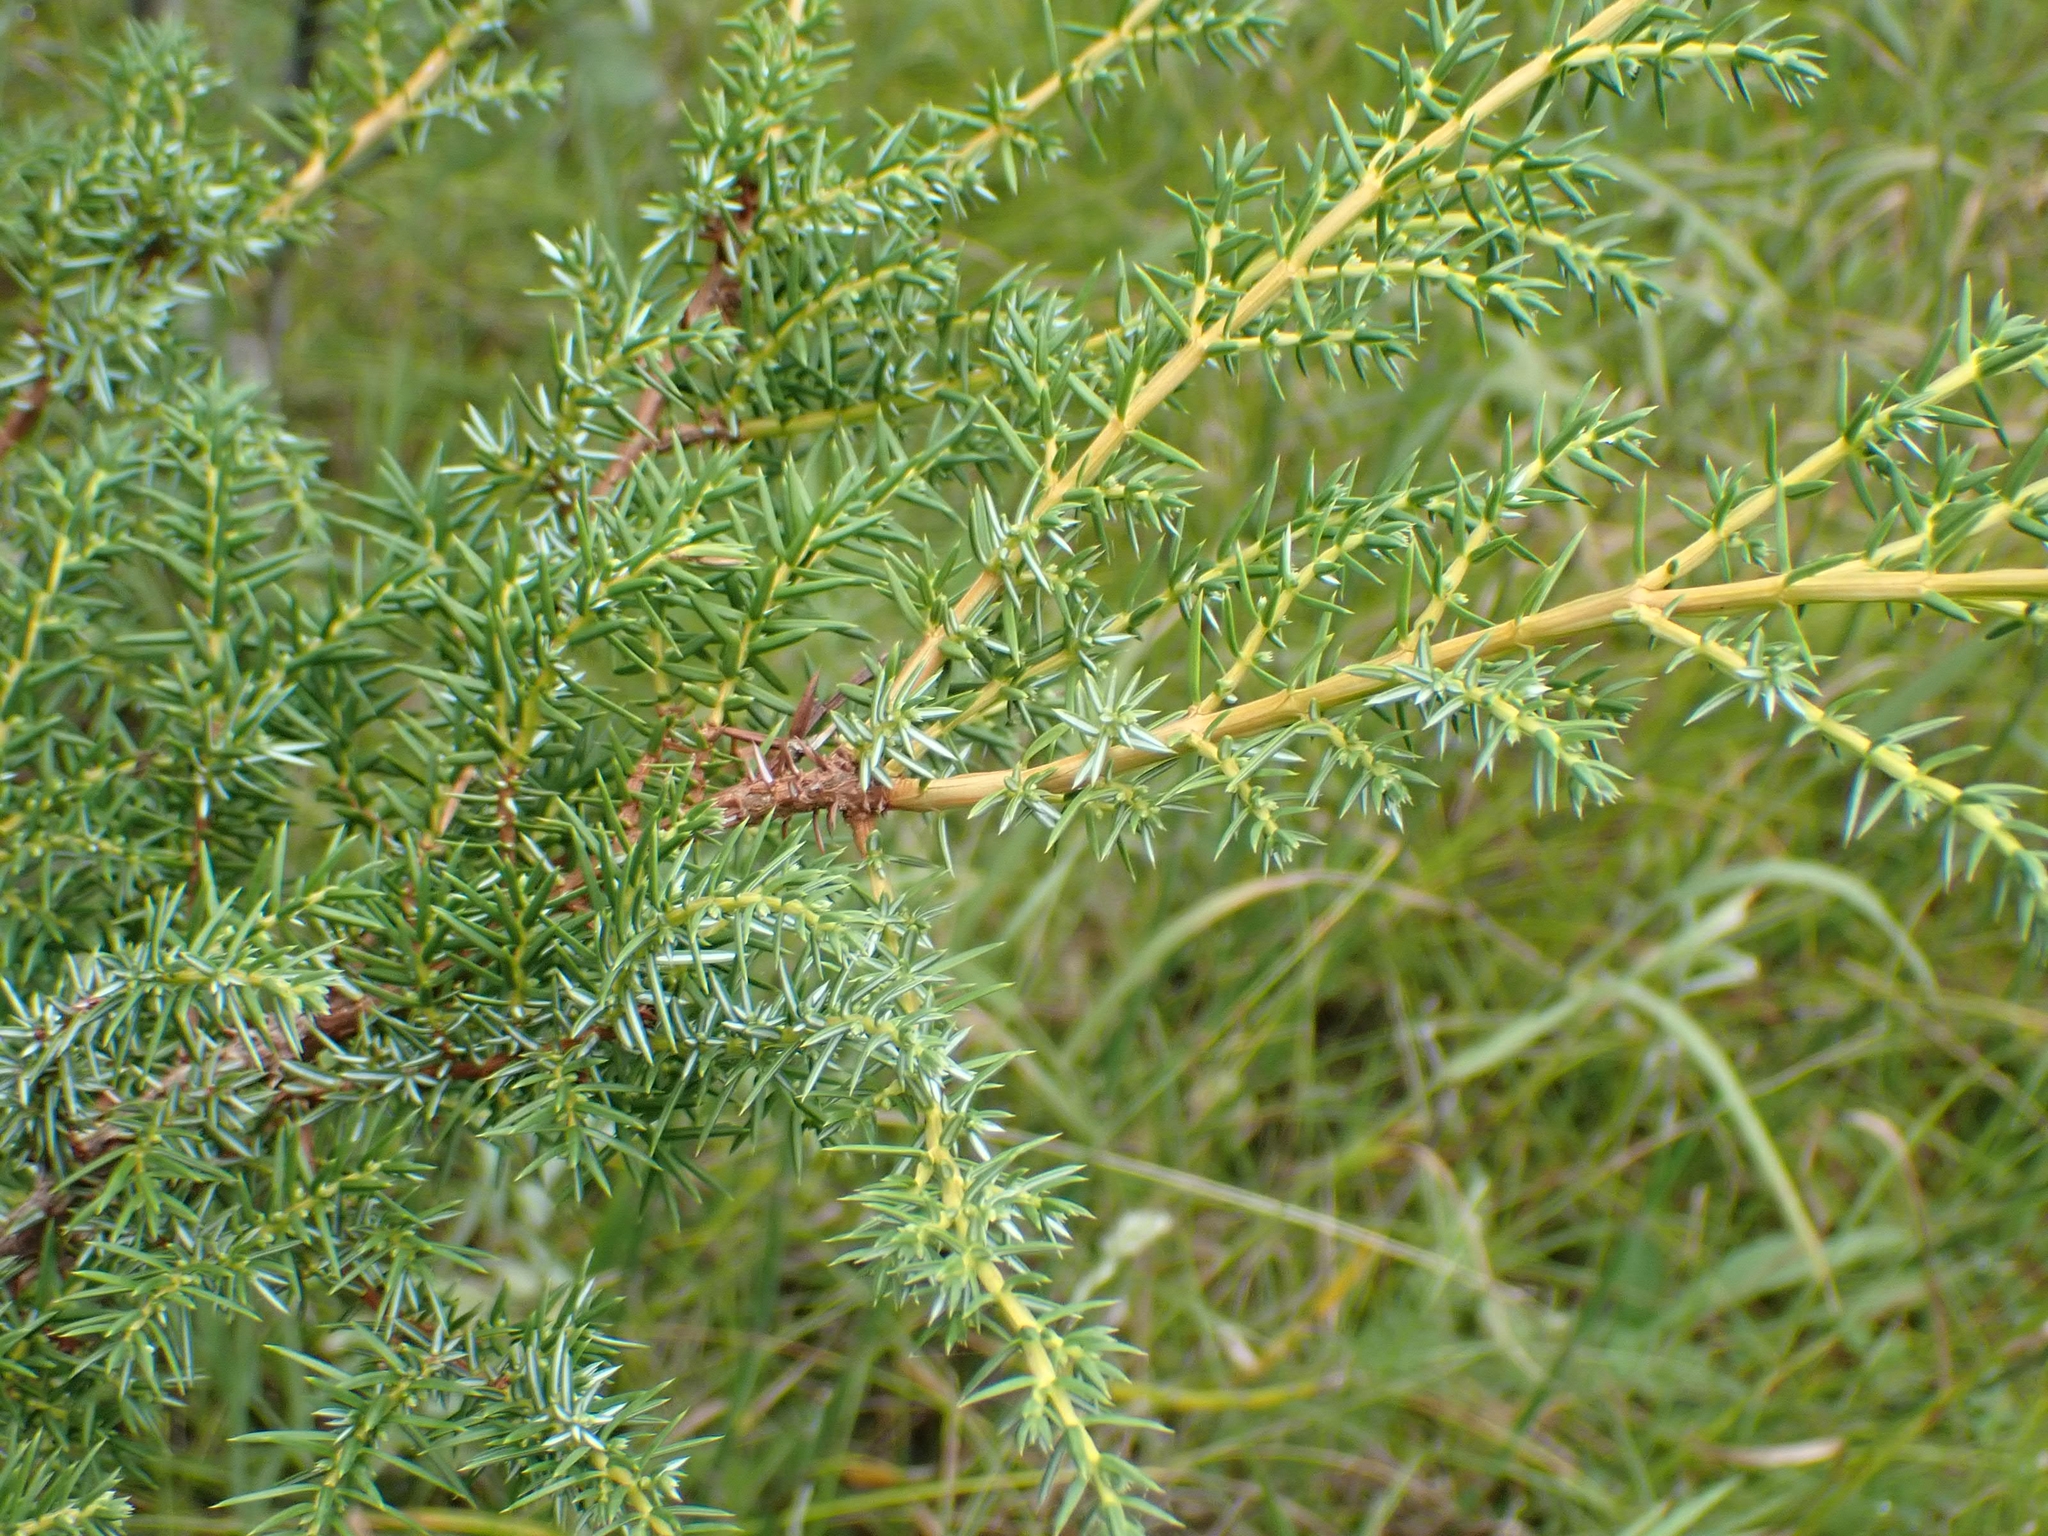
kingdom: Plantae
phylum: Tracheophyta
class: Pinopsida
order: Pinales
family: Cupressaceae
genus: Juniperus
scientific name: Juniperus communis
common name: Common juniper
